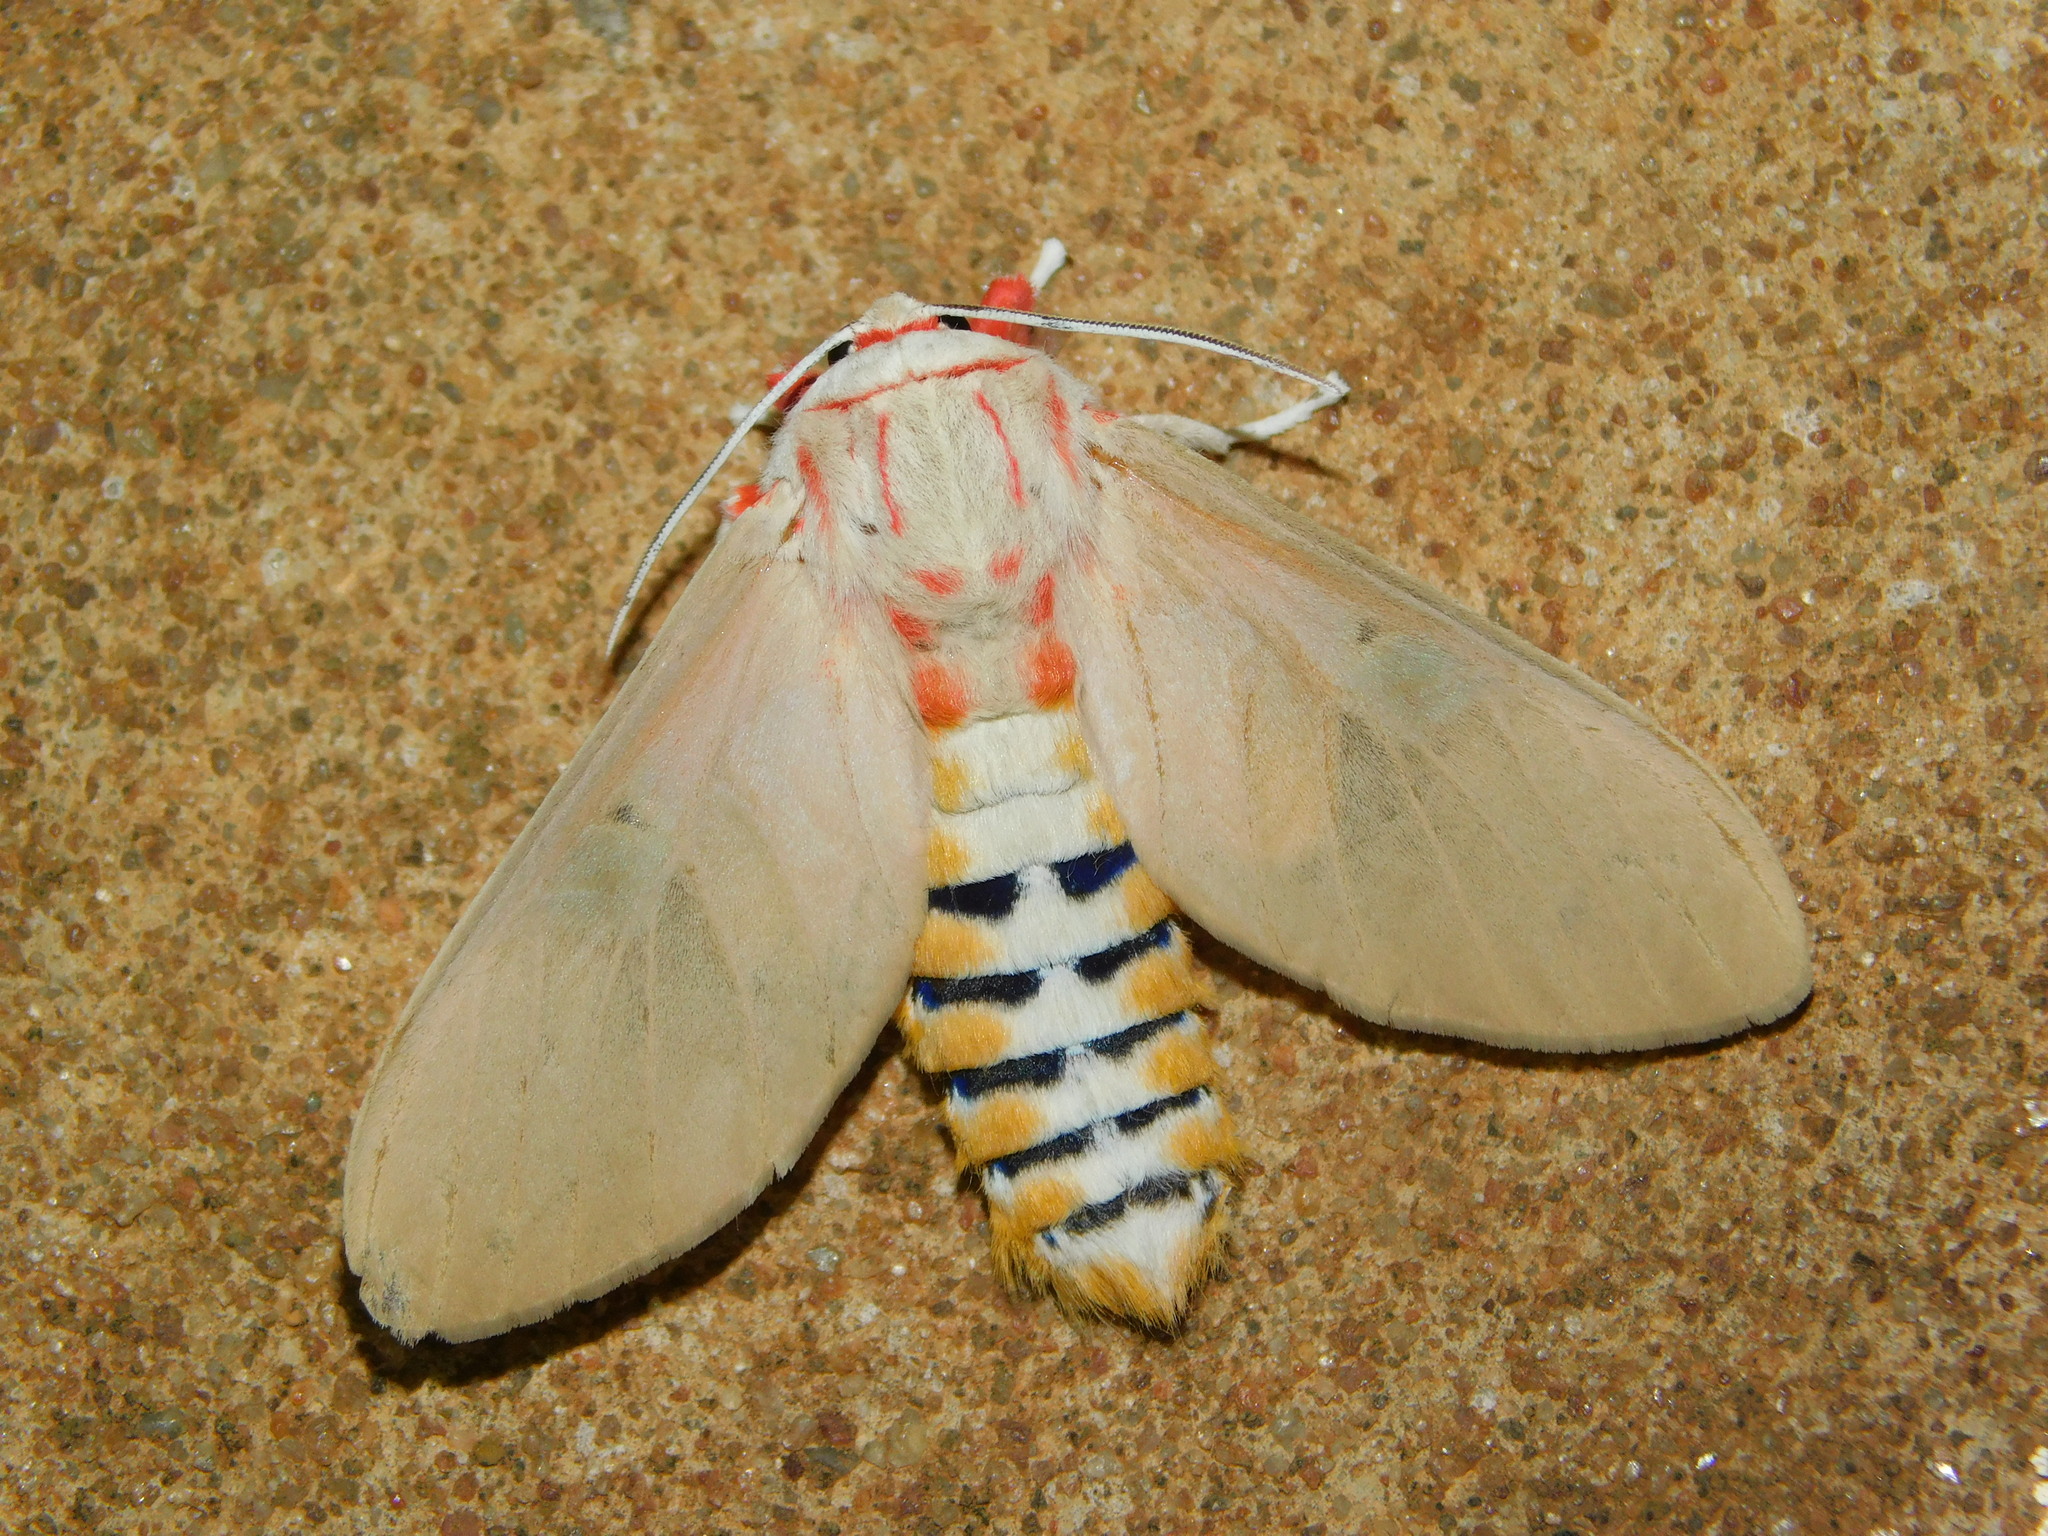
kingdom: Animalia
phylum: Arthropoda
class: Insecta
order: Lepidoptera
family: Erebidae
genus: Balacra
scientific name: Balacra herona
